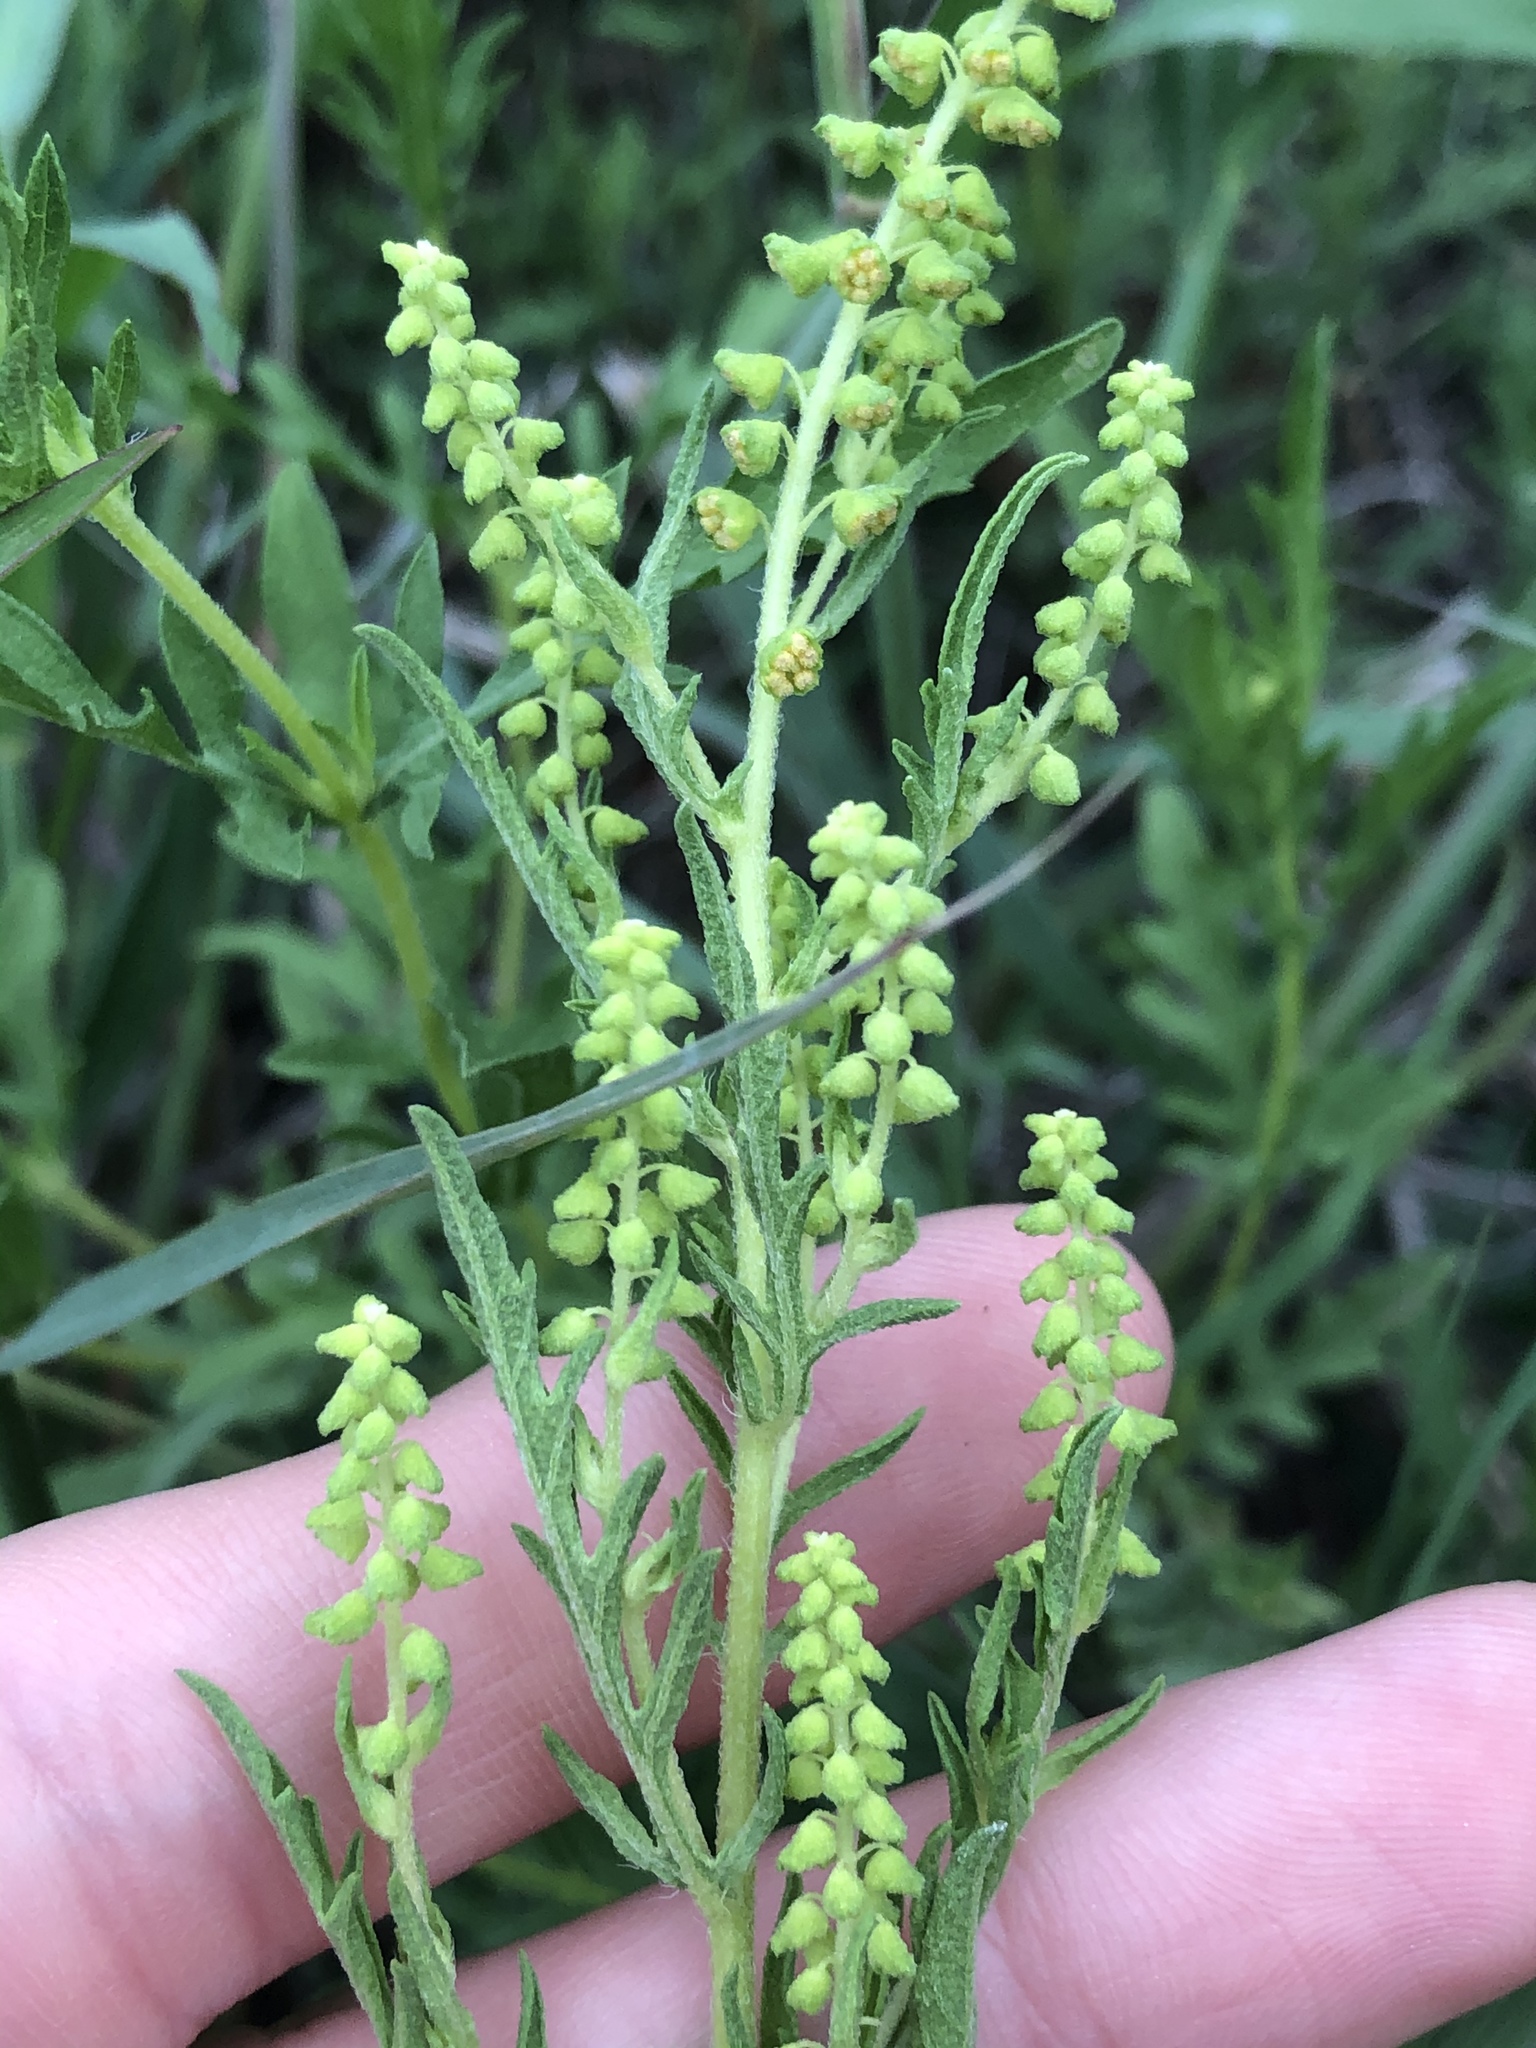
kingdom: Plantae
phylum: Tracheophyta
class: Magnoliopsida
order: Asterales
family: Asteraceae
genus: Ambrosia
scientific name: Ambrosia psilostachya
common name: Perennial ragweed
